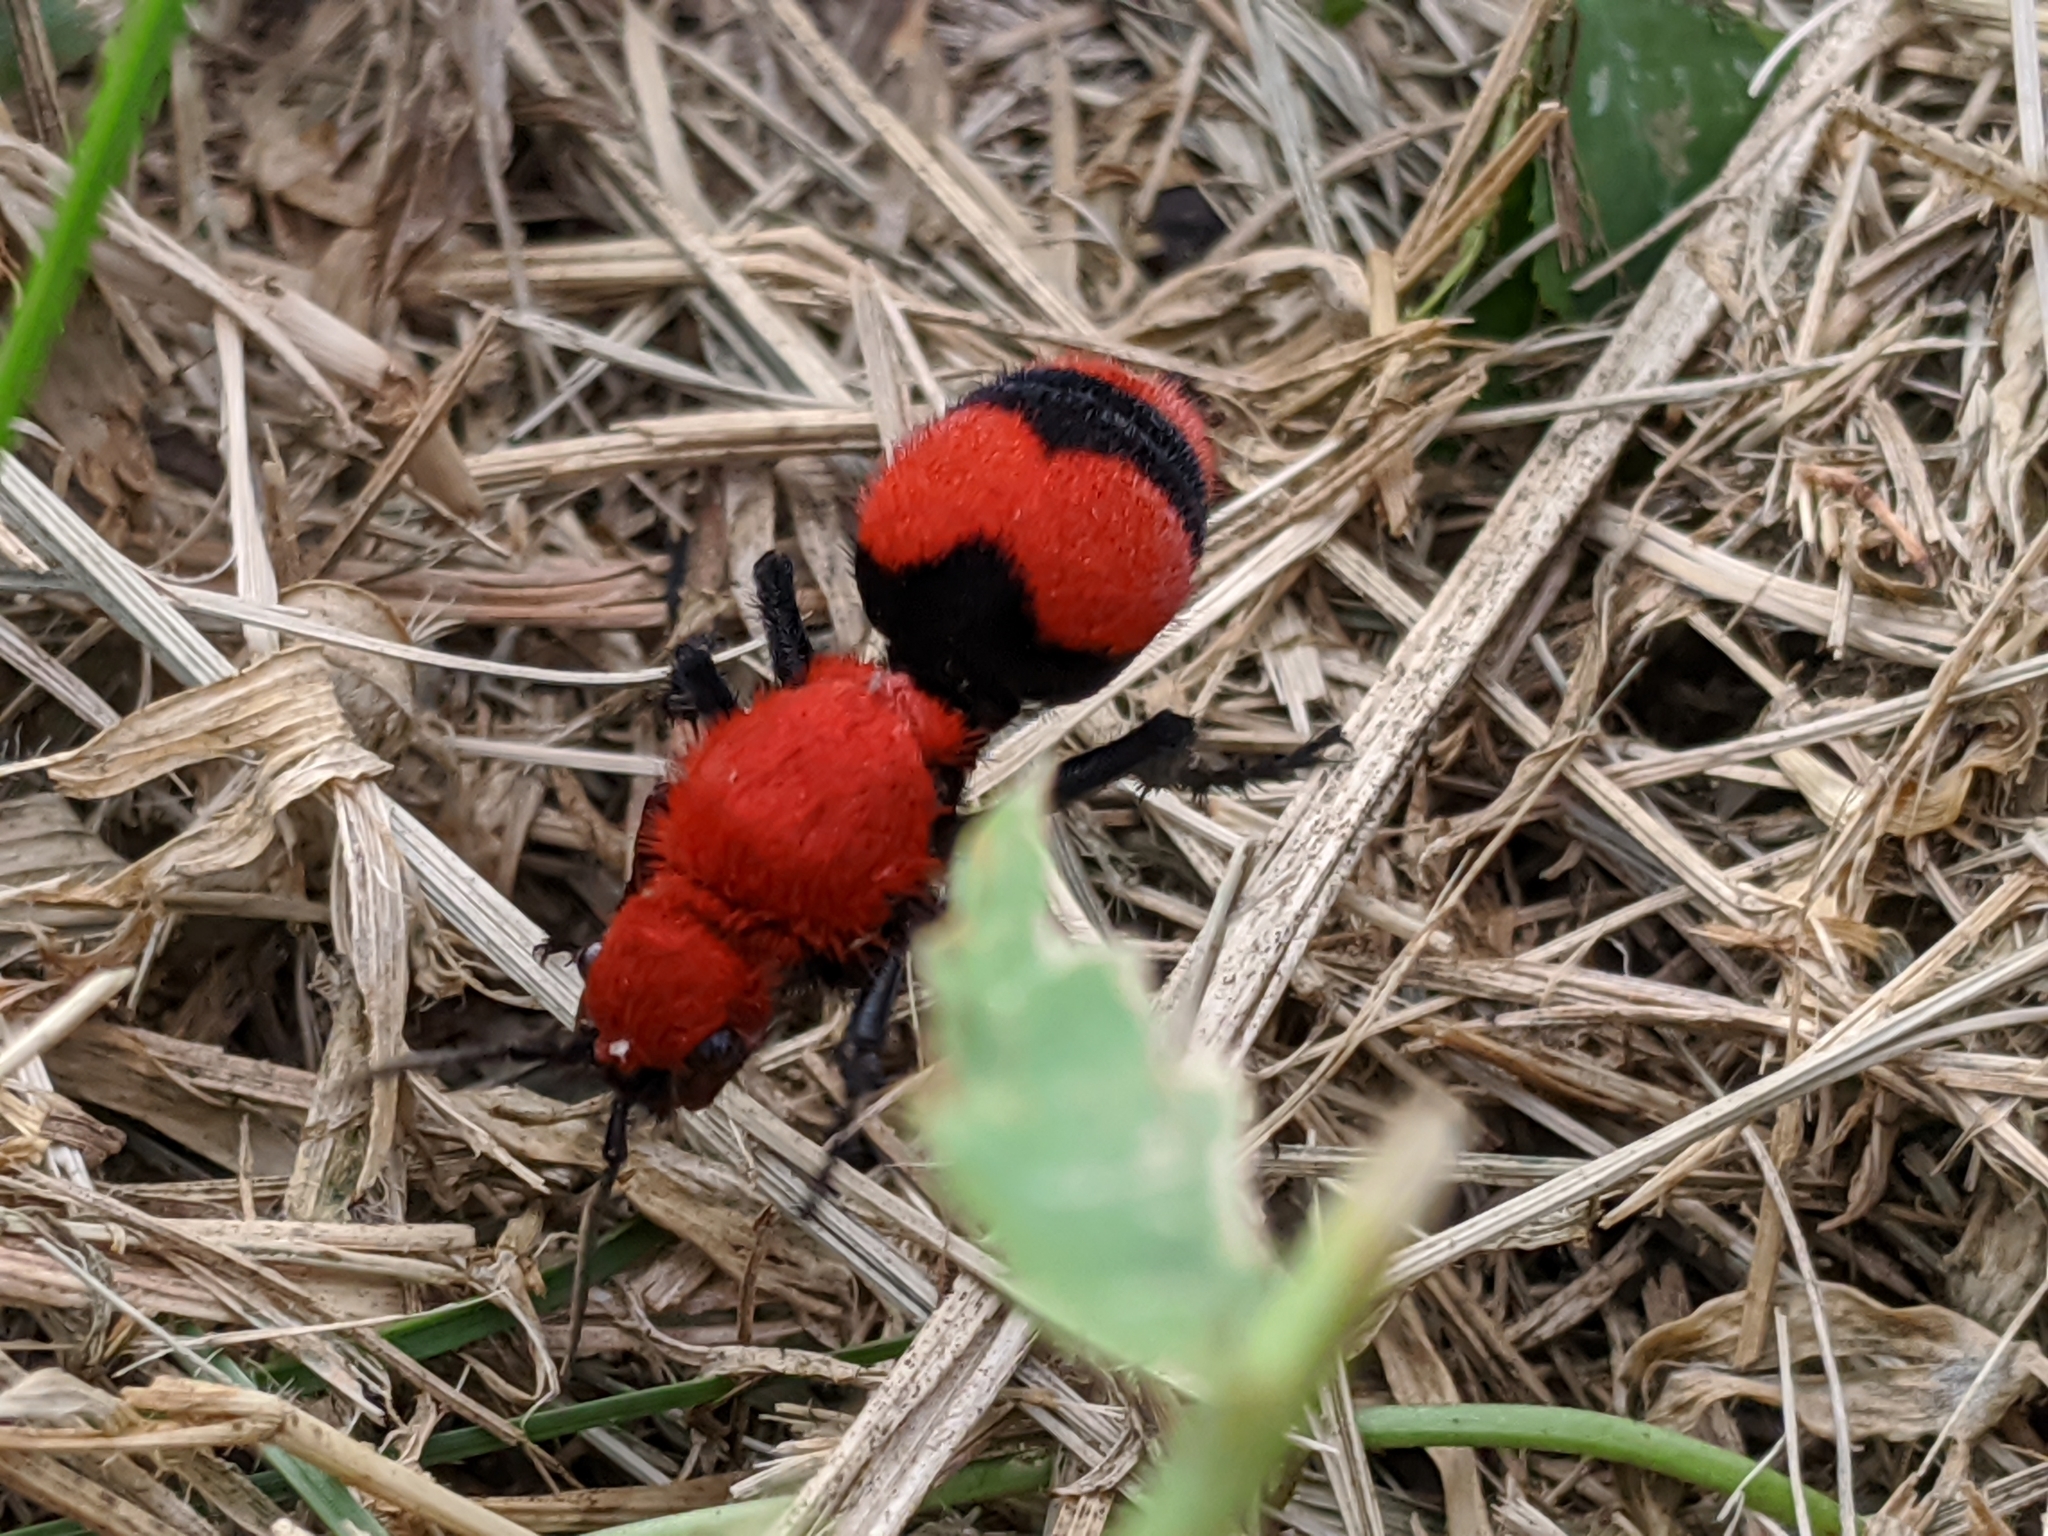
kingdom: Animalia
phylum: Arthropoda
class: Insecta
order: Hymenoptera
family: Mutillidae
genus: Dasymutilla
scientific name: Dasymutilla occidentalis
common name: Common eastern velvet ant
